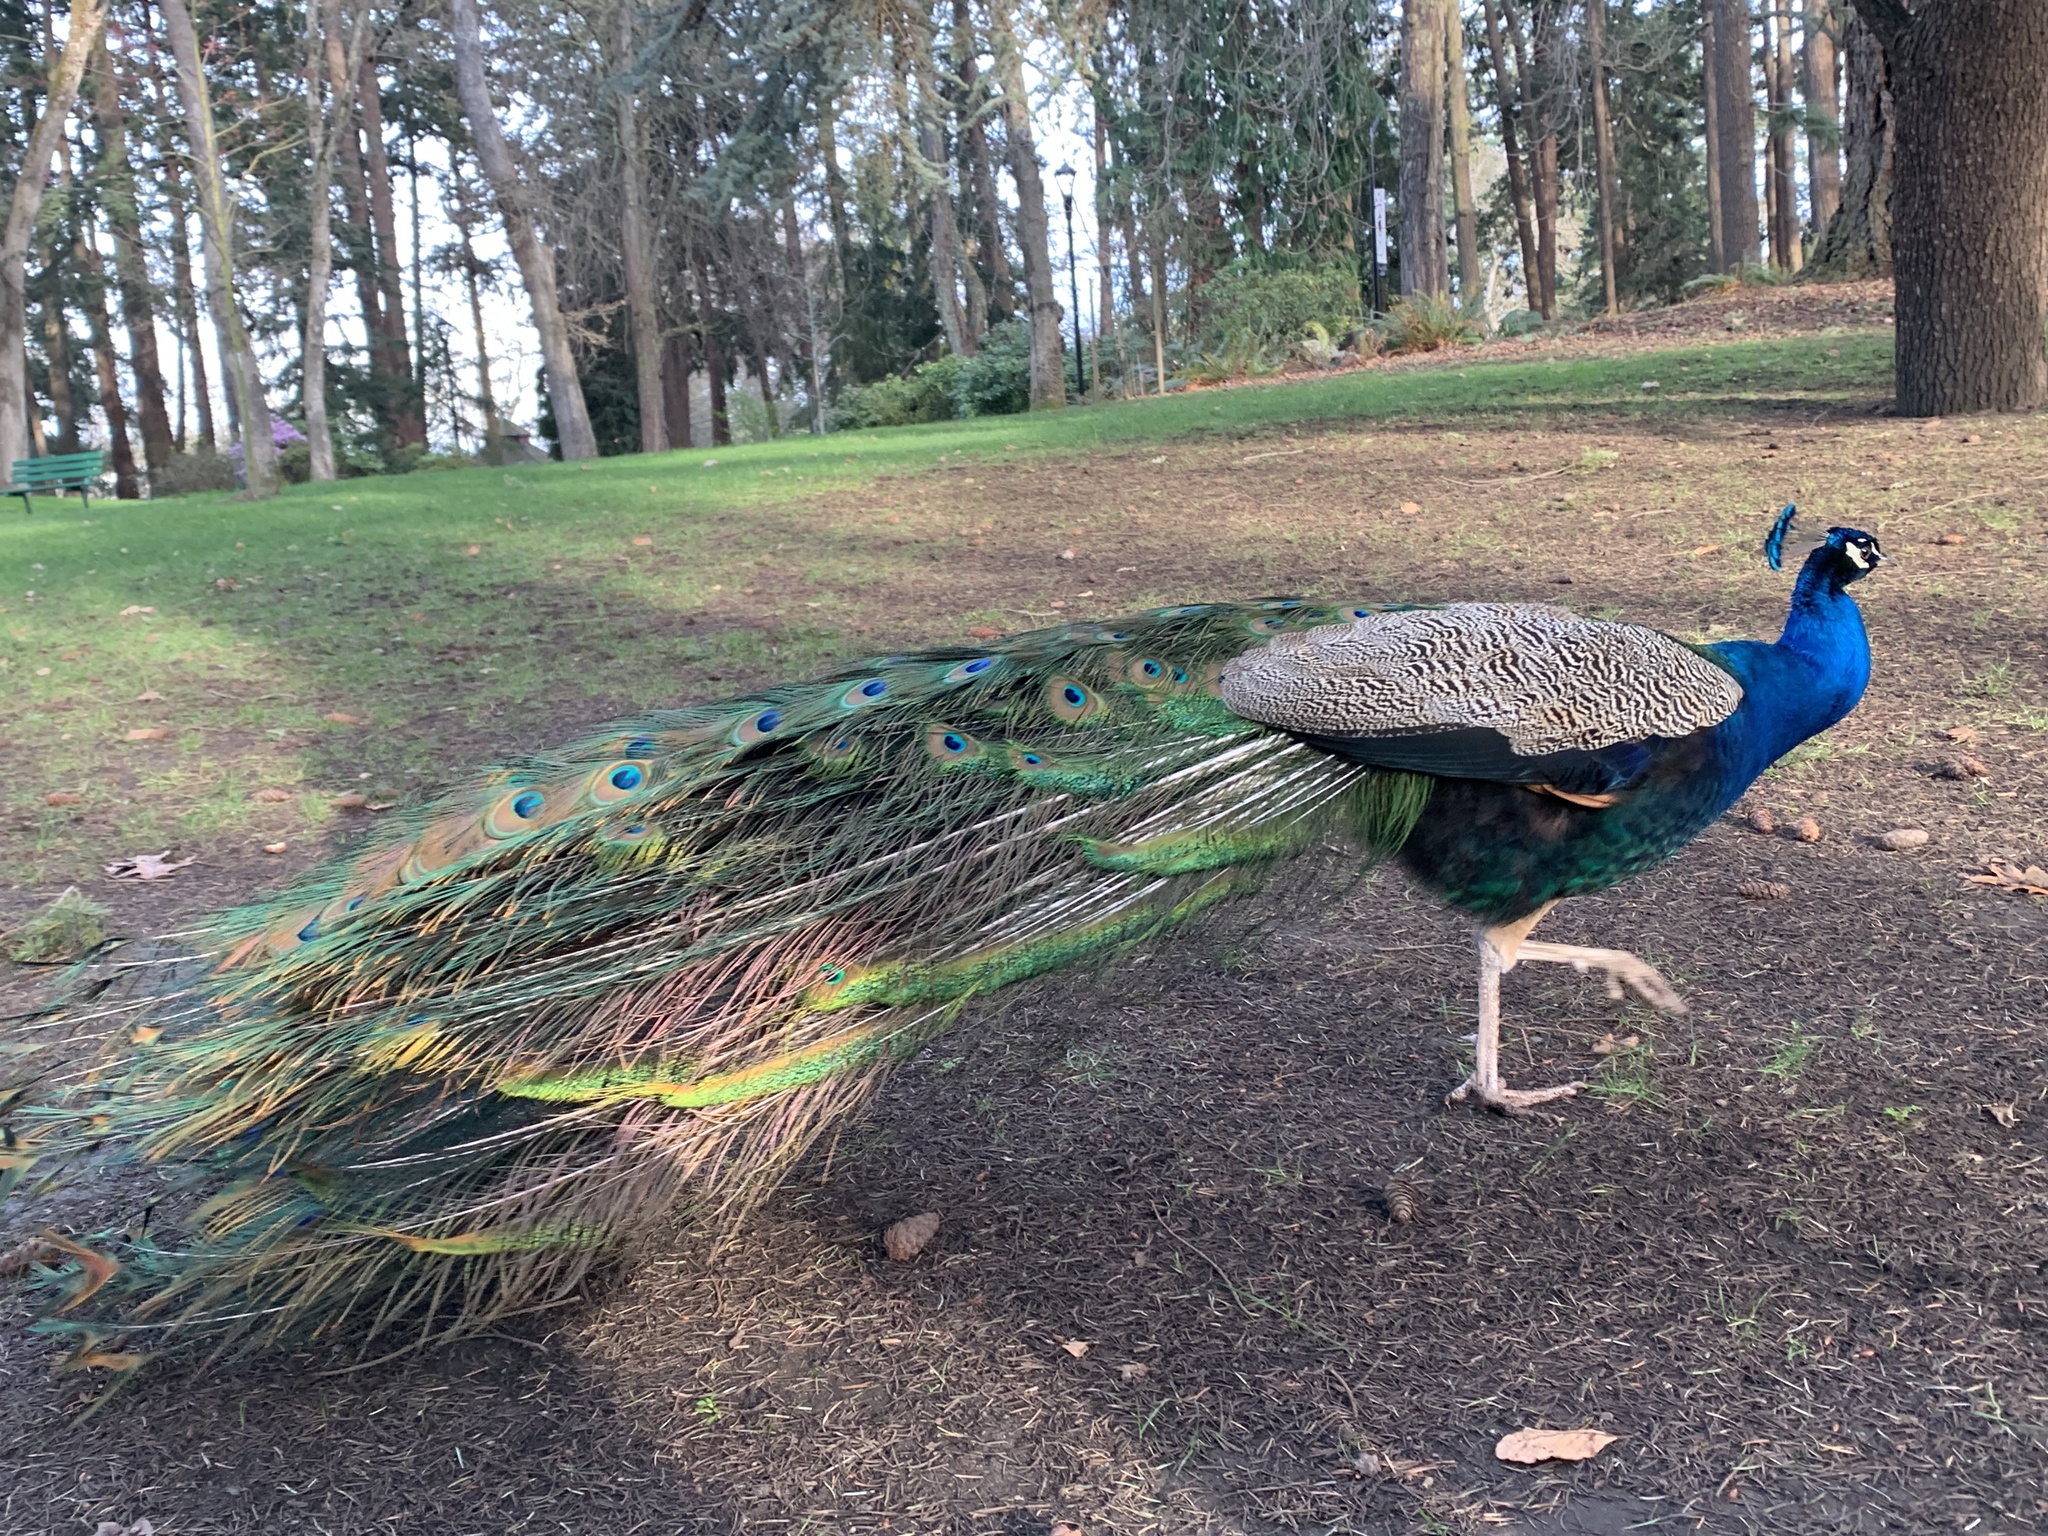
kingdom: Animalia
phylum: Chordata
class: Aves
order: Galliformes
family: Phasianidae
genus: Pavo
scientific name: Pavo cristatus
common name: Indian peafowl
